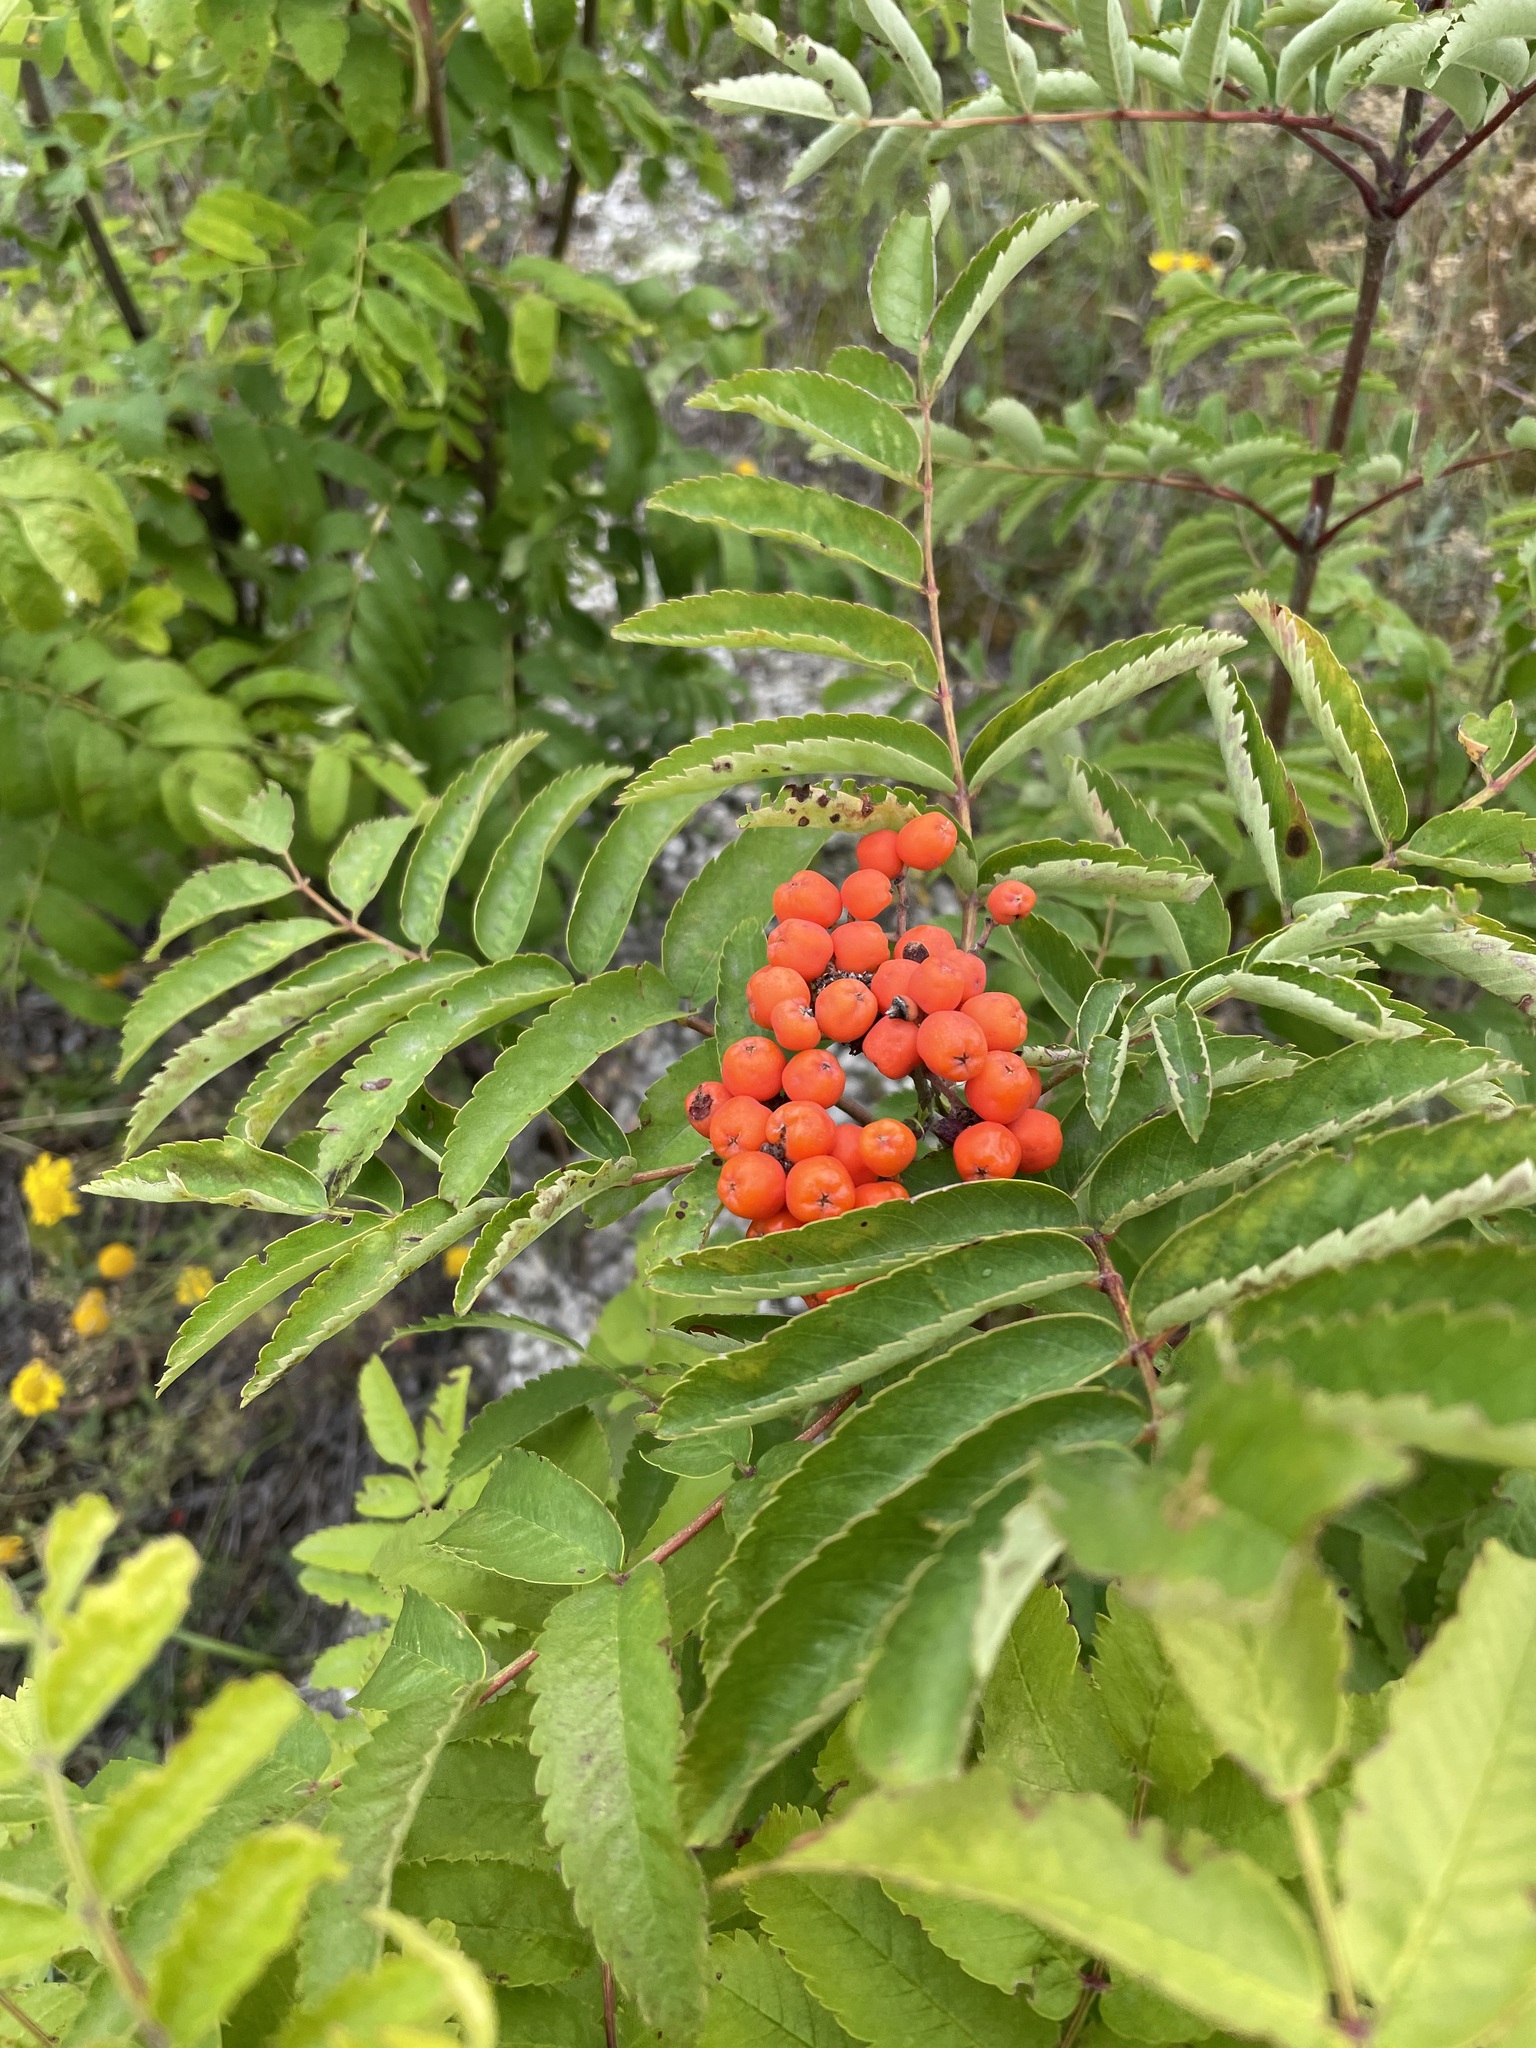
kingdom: Plantae
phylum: Tracheophyta
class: Magnoliopsida
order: Rosales
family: Rosaceae
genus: Sorbus
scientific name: Sorbus aucuparia
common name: Rowan
